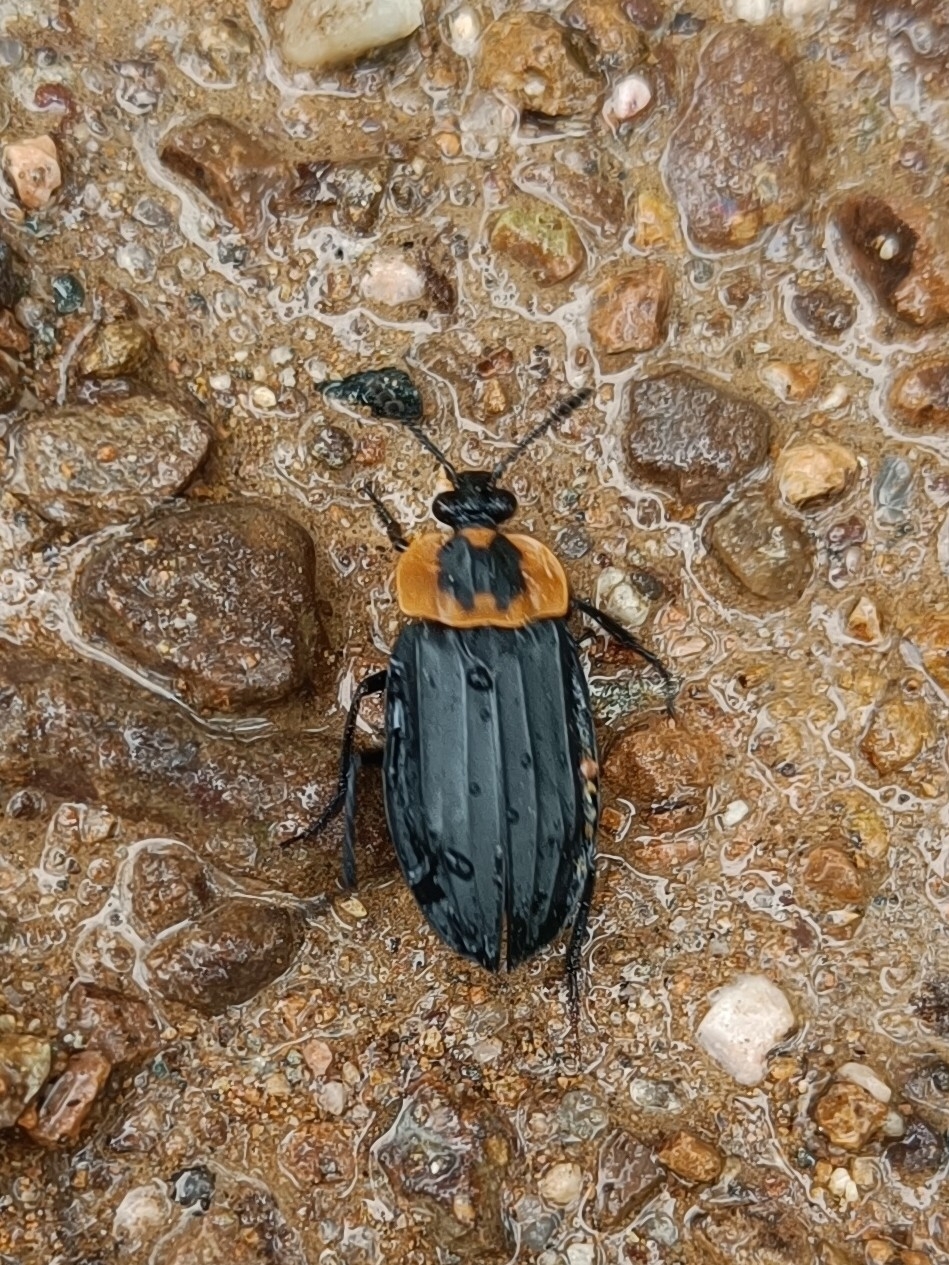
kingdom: Animalia
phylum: Arthropoda
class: Insecta
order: Coleoptera
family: Staphylinidae
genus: Oxelytrum
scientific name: Oxelytrum discicolle
